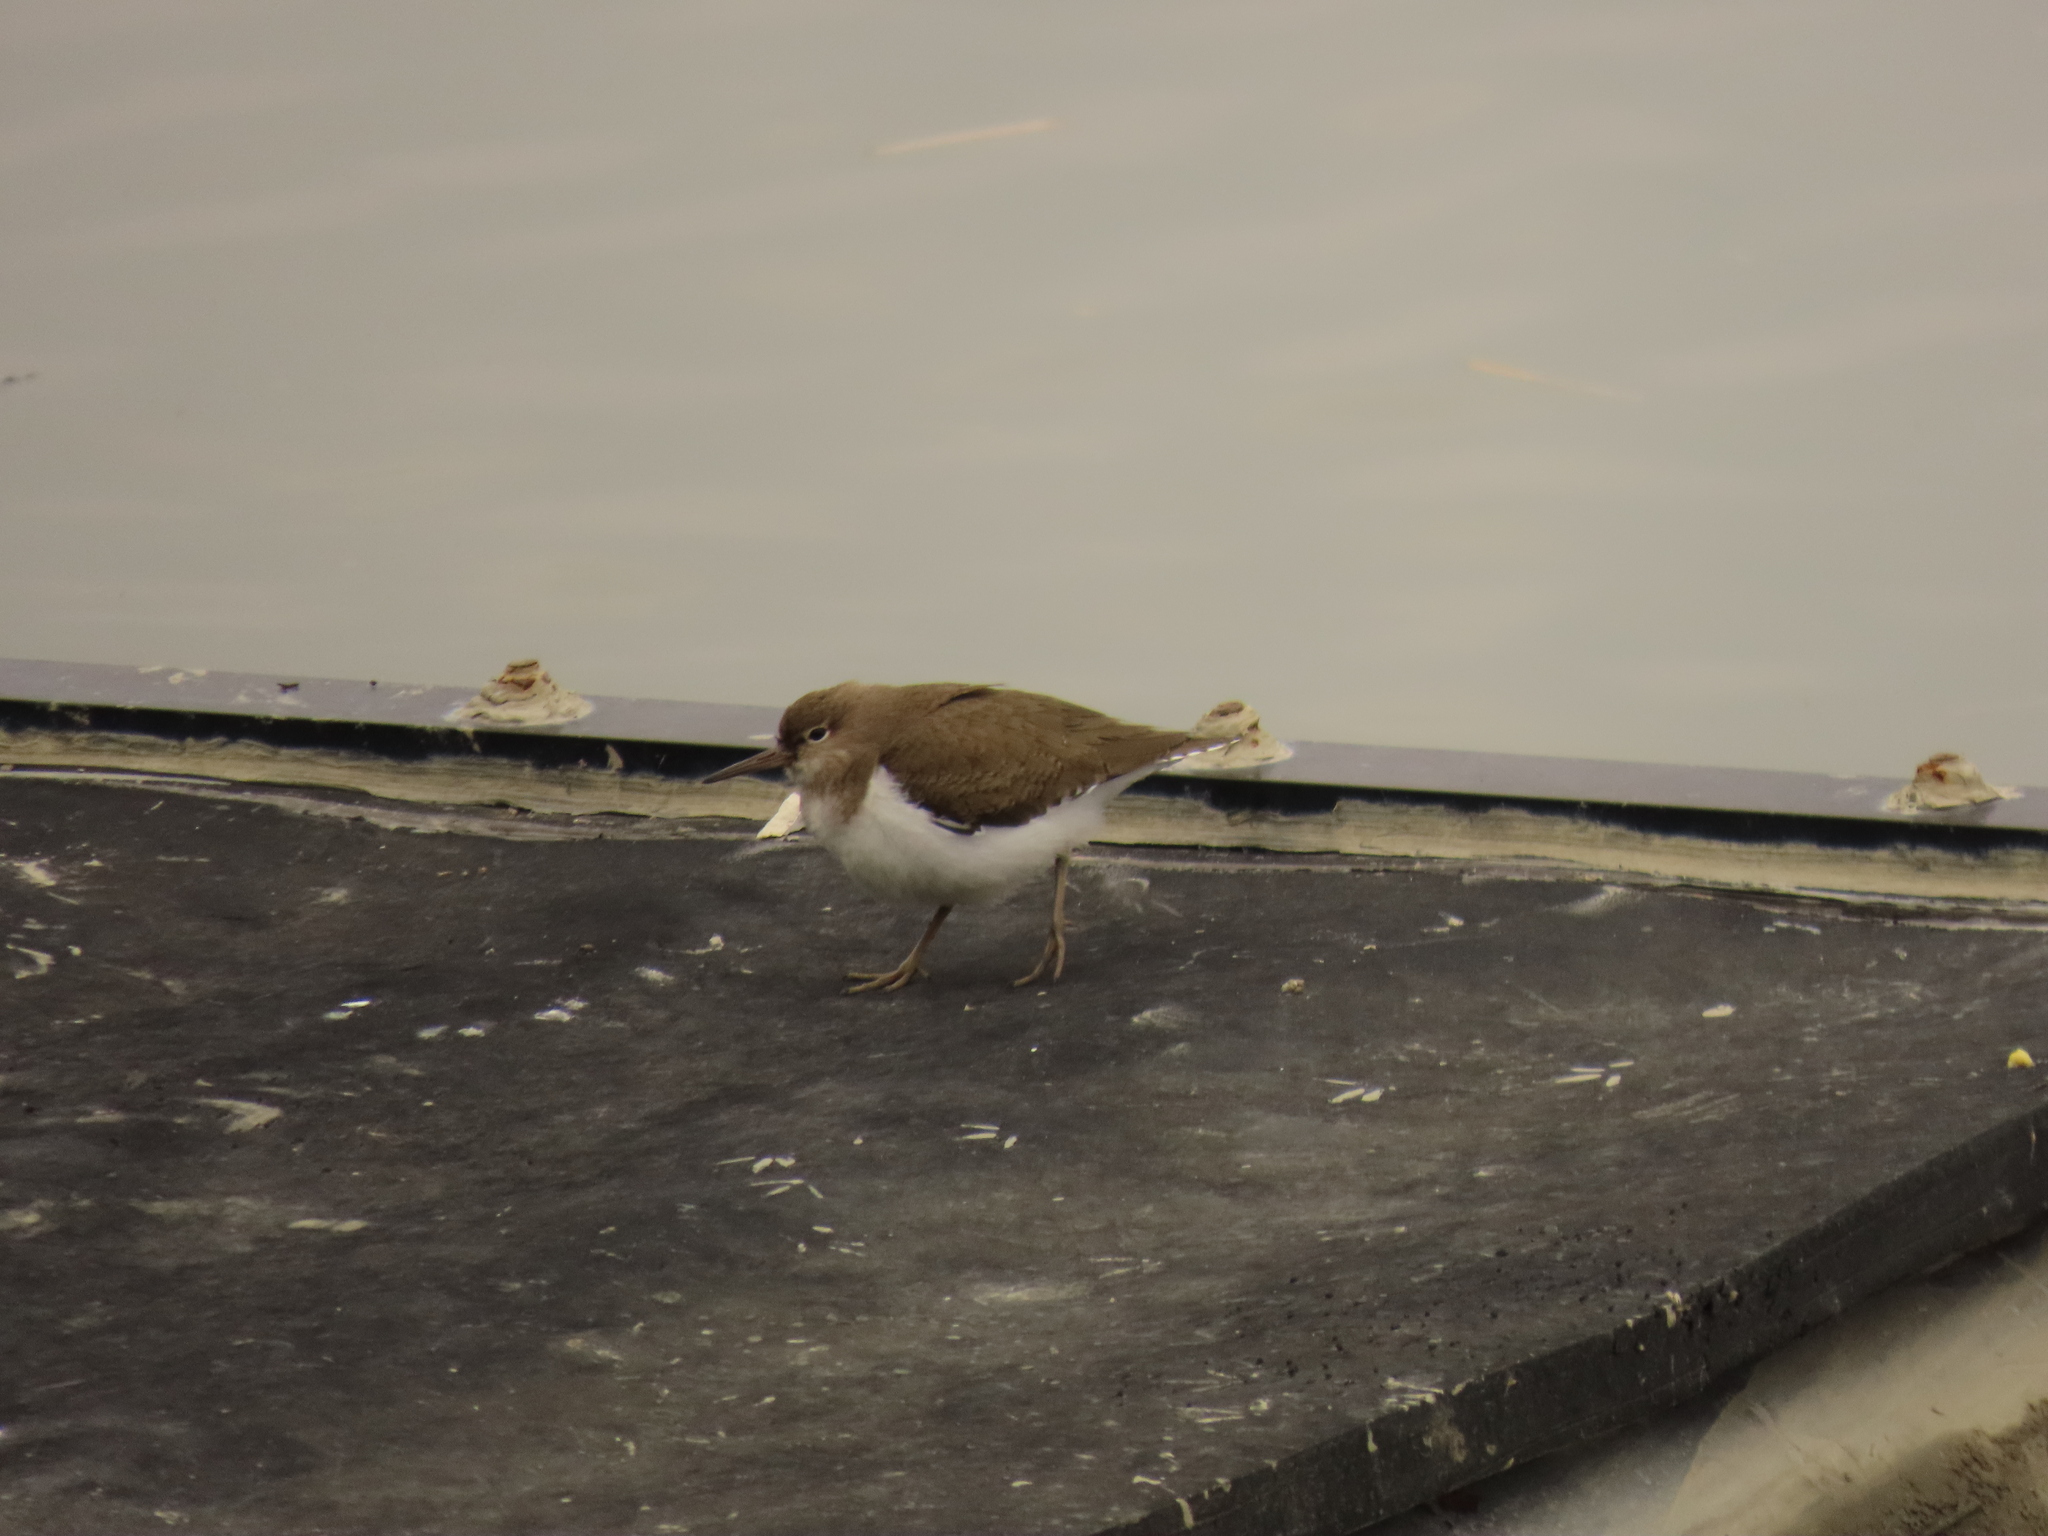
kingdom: Animalia
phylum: Chordata
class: Aves
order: Charadriiformes
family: Scolopacidae
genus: Actitis
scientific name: Actitis hypoleucos
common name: Common sandpiper
